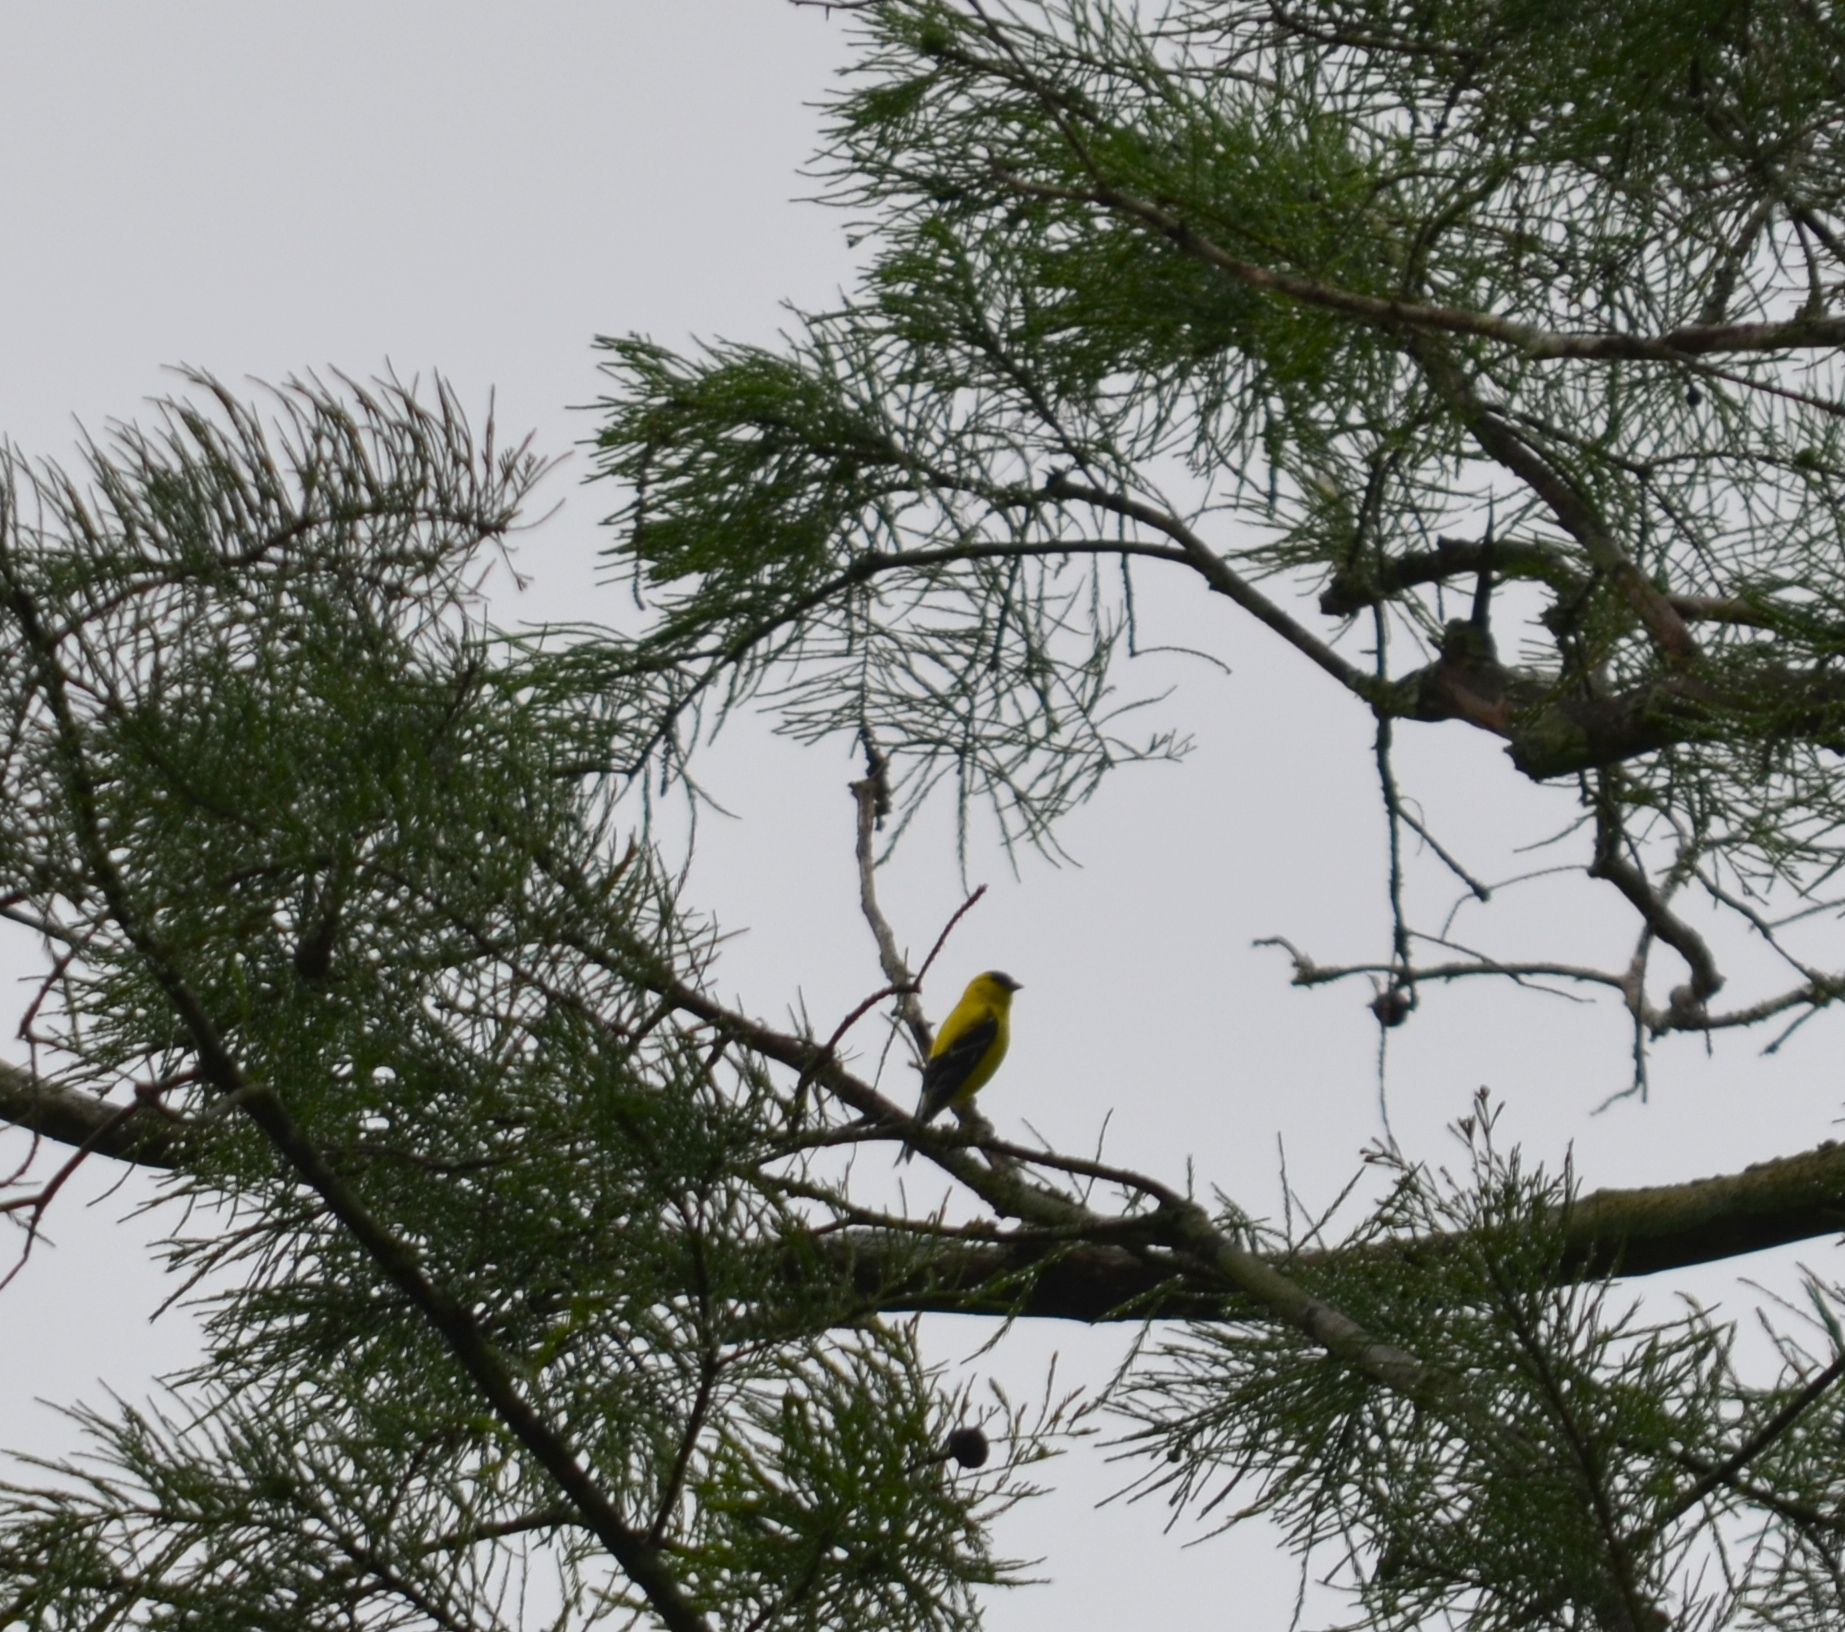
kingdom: Animalia
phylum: Chordata
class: Aves
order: Passeriformes
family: Fringillidae
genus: Spinus
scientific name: Spinus tristis
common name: American goldfinch
